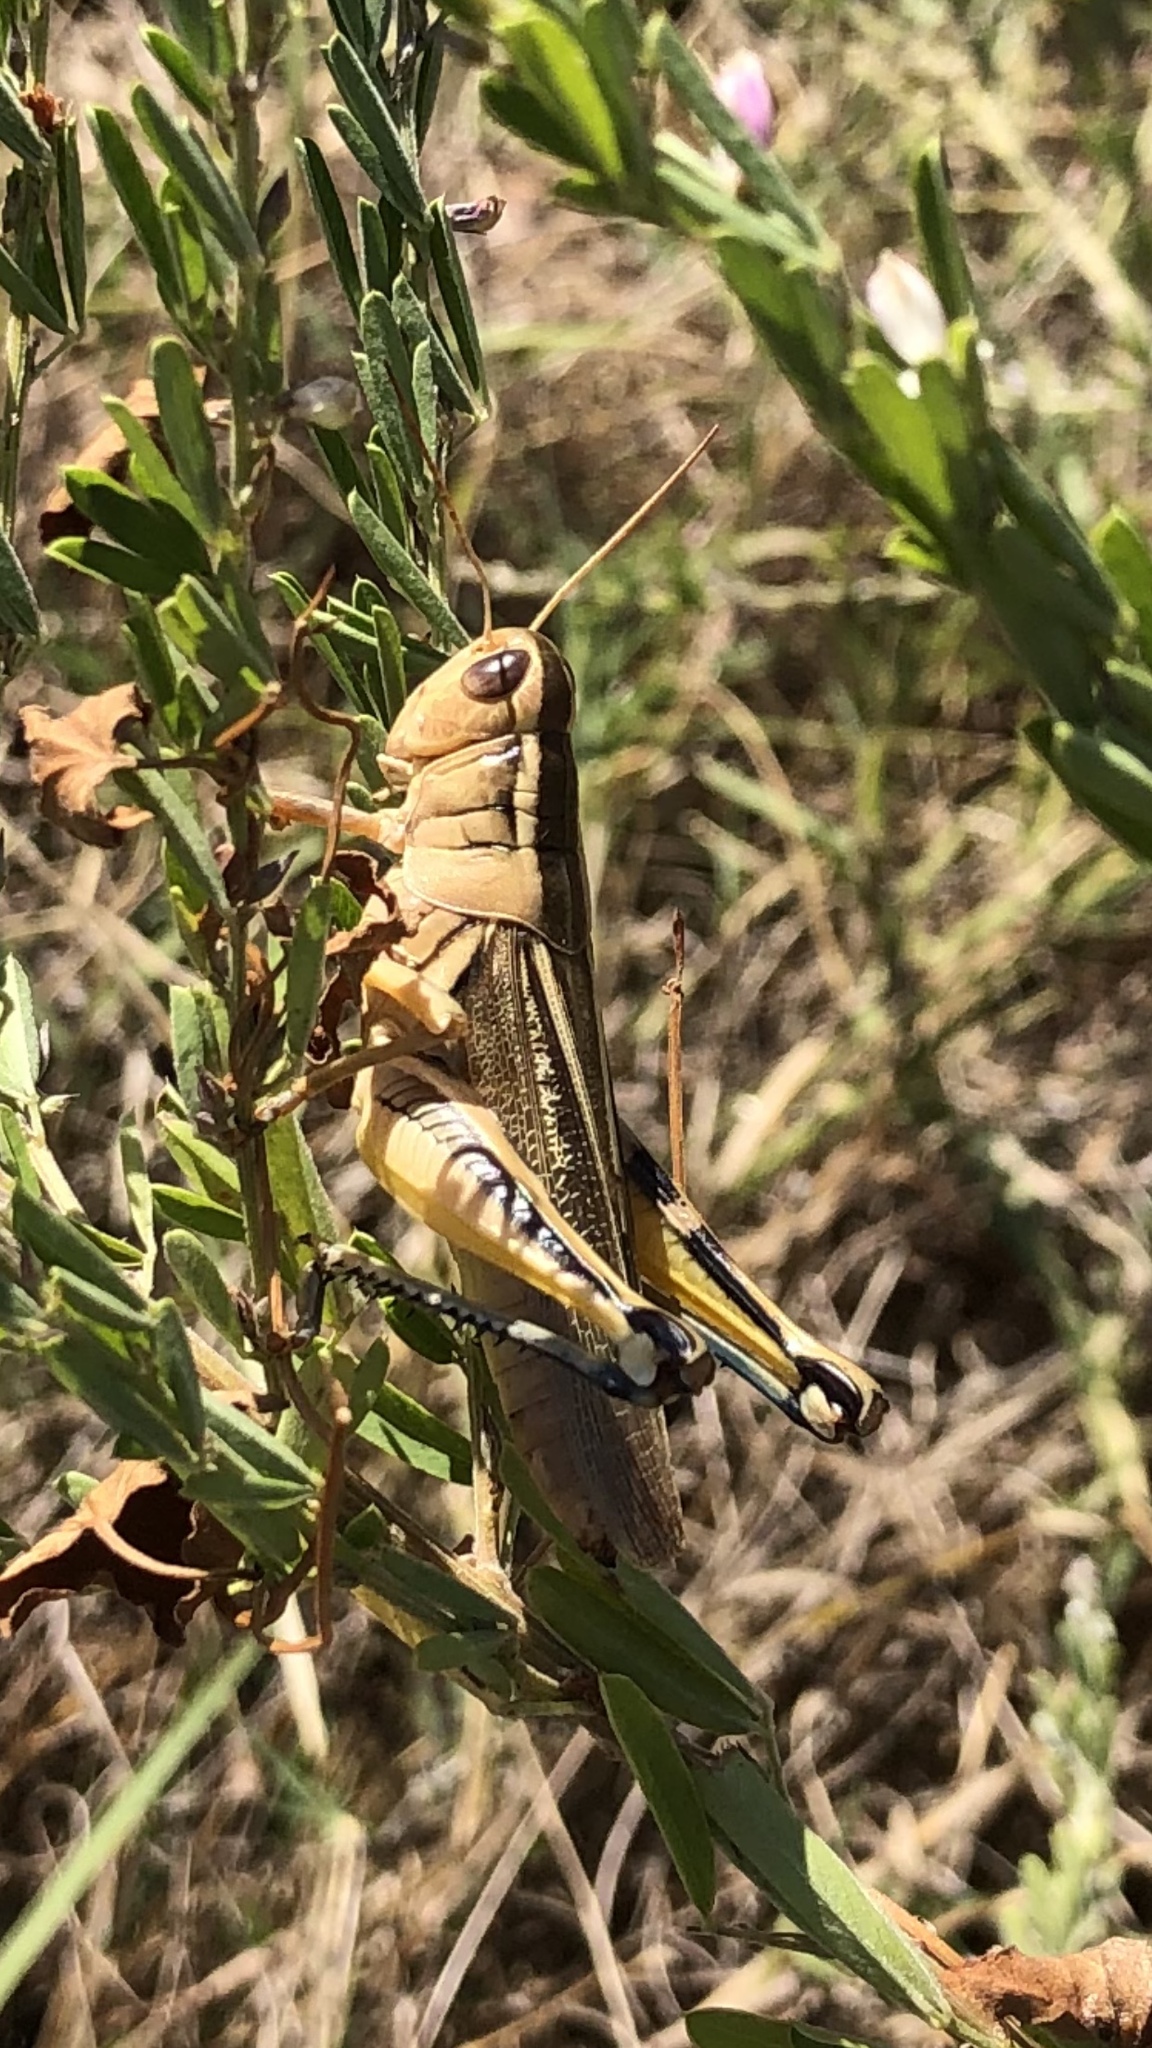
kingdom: Animalia
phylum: Arthropoda
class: Insecta
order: Orthoptera
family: Acrididae
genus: Melanoplus
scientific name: Melanoplus bivittatus
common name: Two-striped grasshopper
